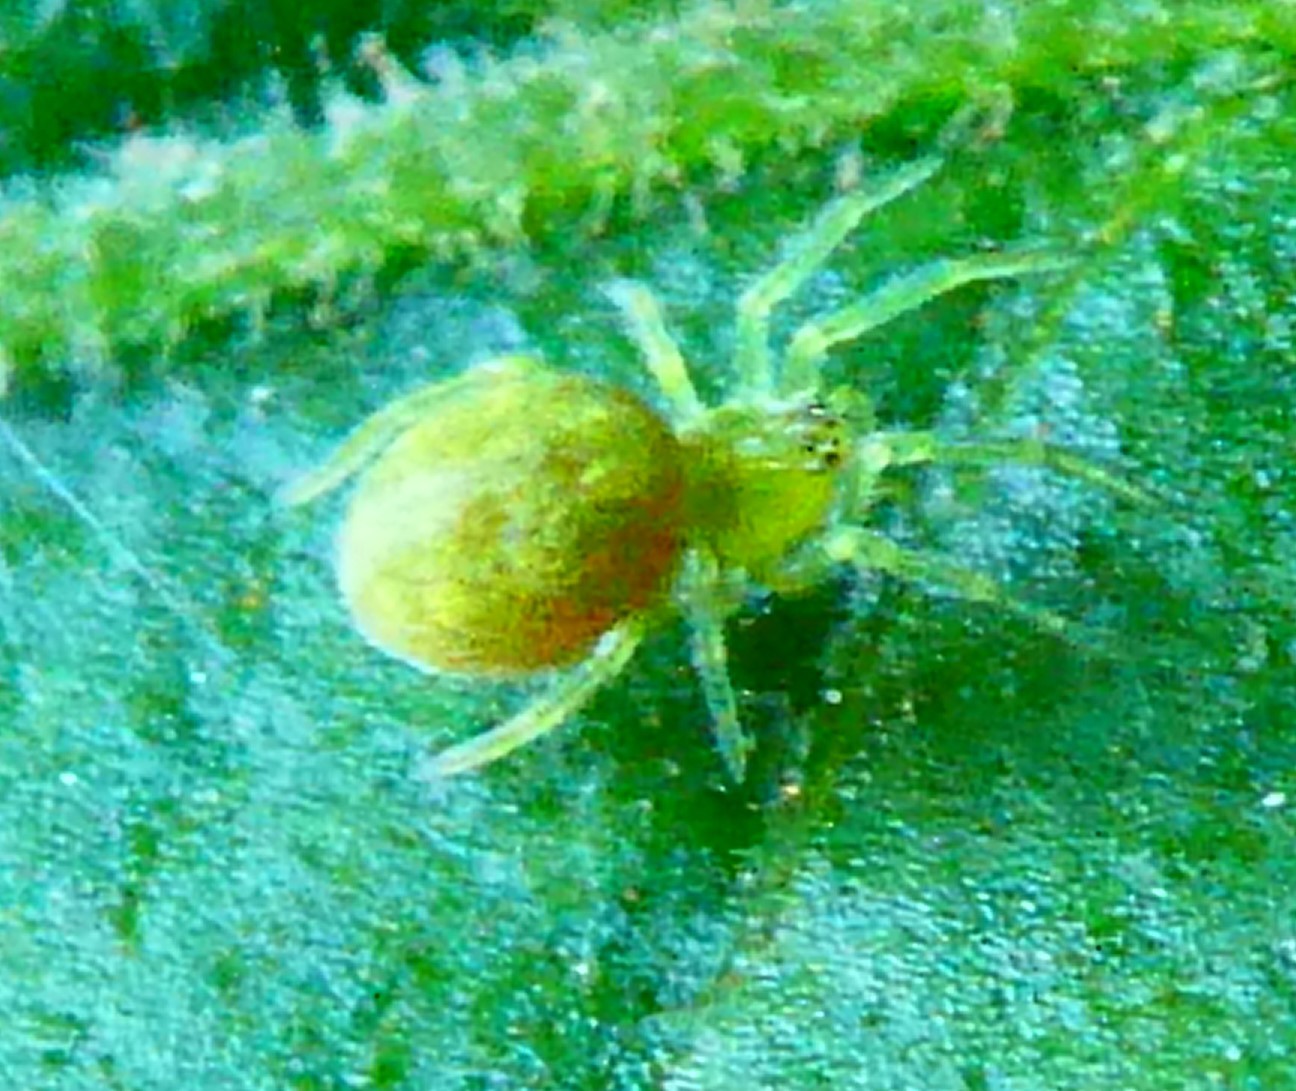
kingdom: Animalia
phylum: Arthropoda
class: Arachnida
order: Araneae
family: Dictynidae
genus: Nigma
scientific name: Nigma walckenaeri
